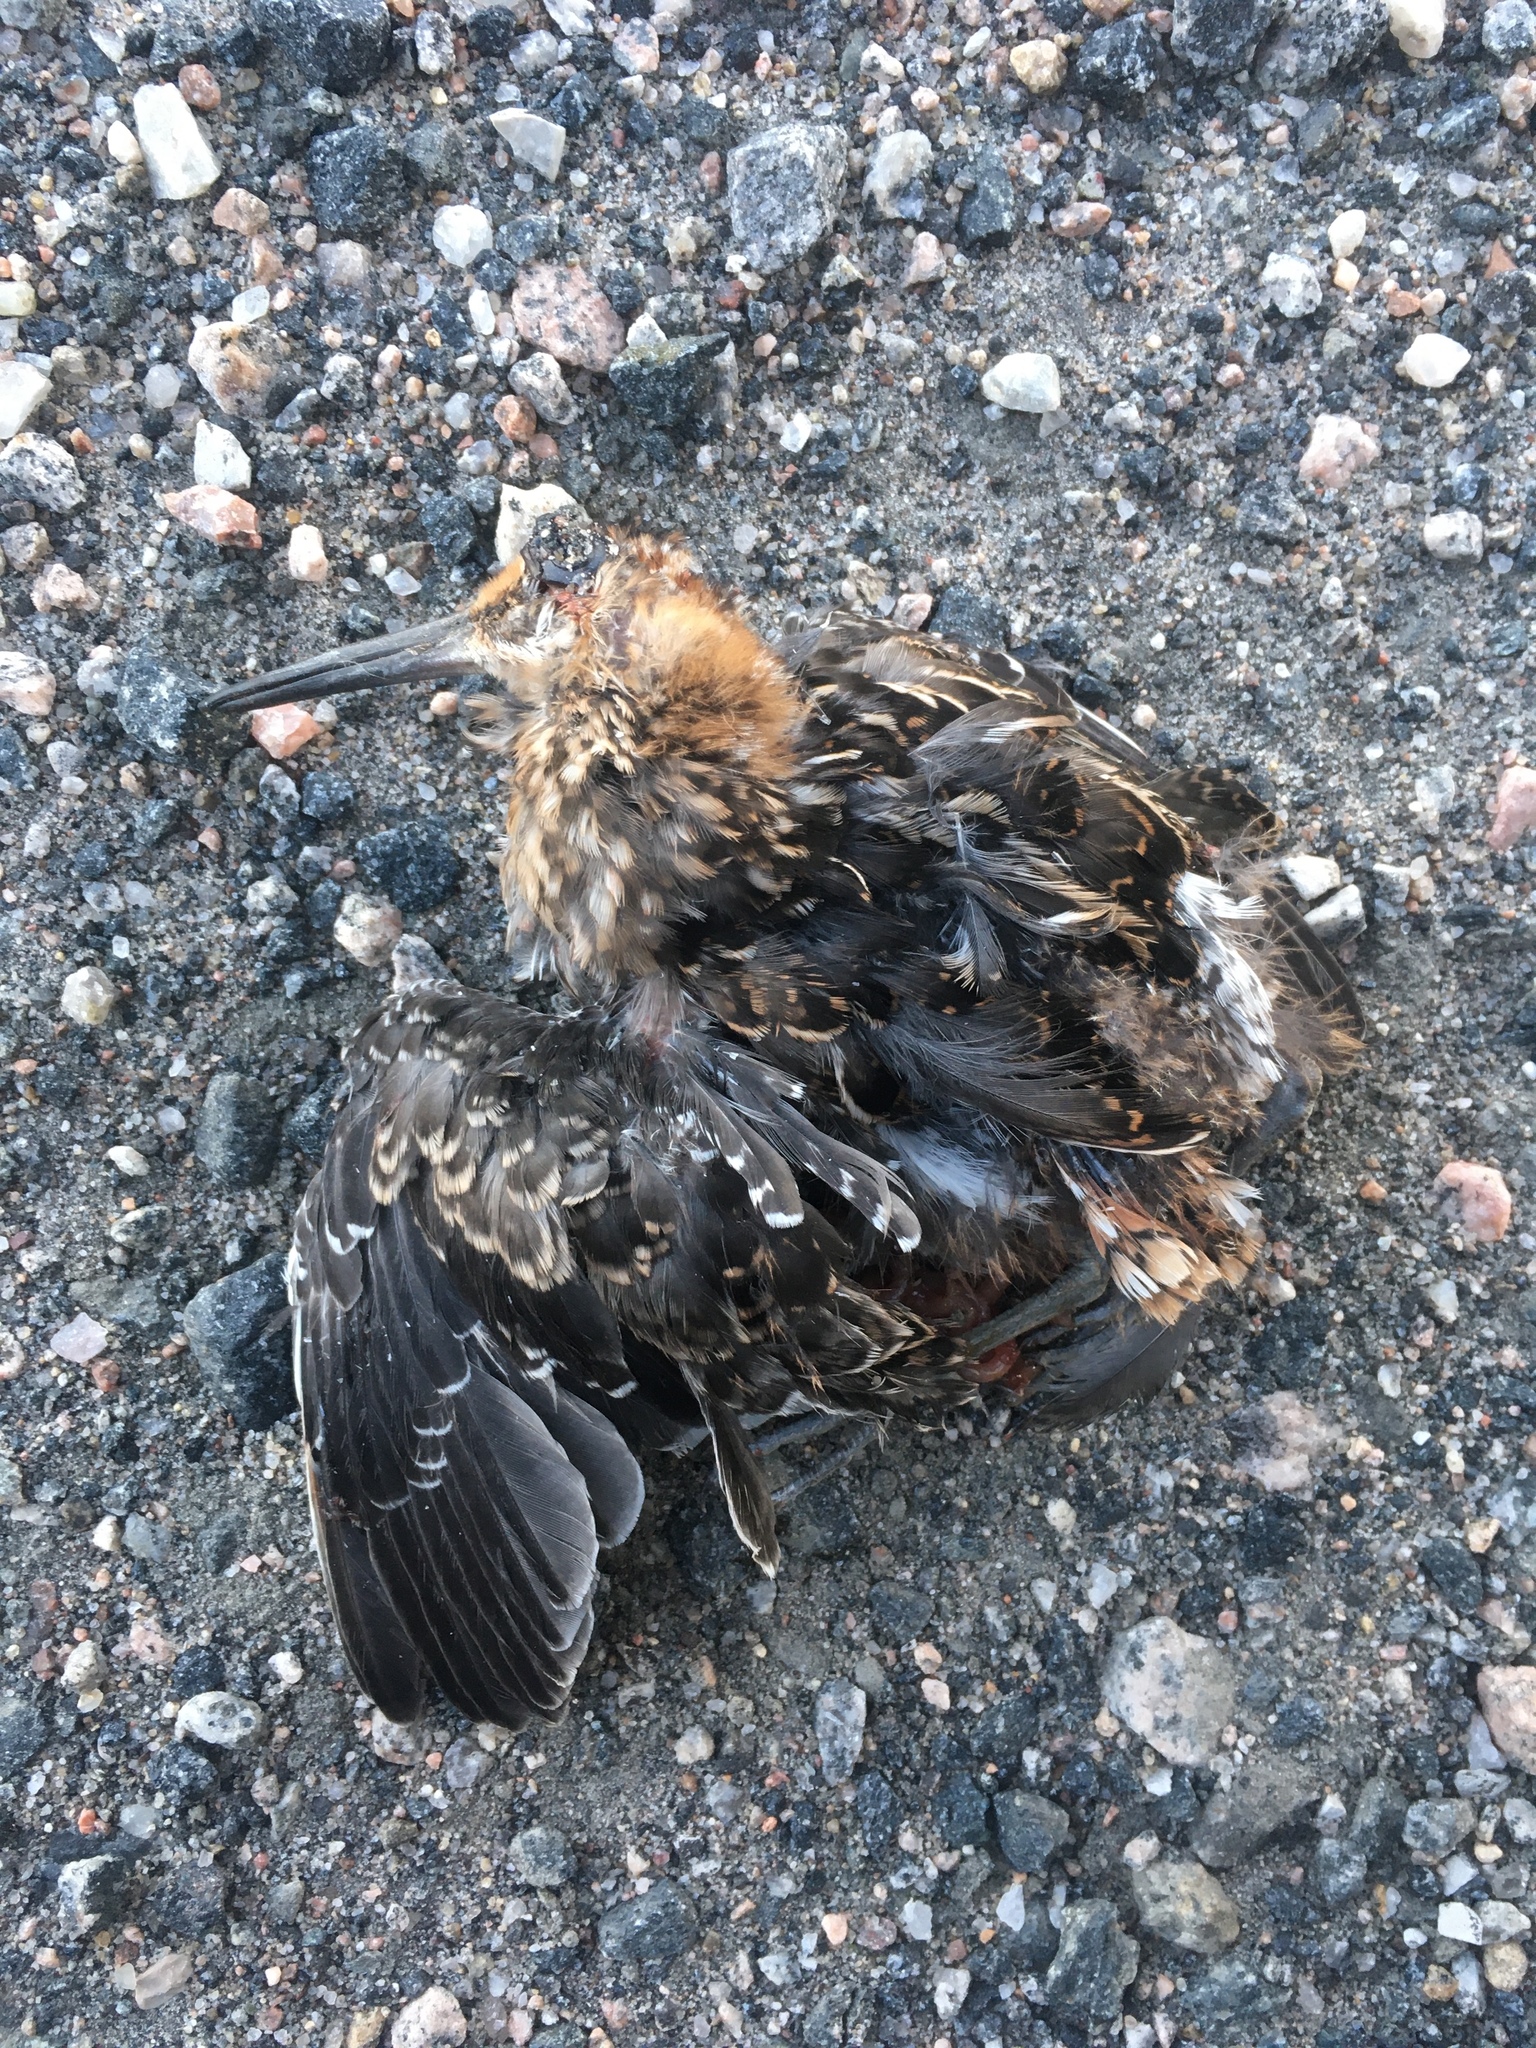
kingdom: Animalia
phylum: Chordata
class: Aves
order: Charadriiformes
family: Scolopacidae
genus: Gallinago
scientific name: Gallinago delicata
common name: Wilson's snipe
